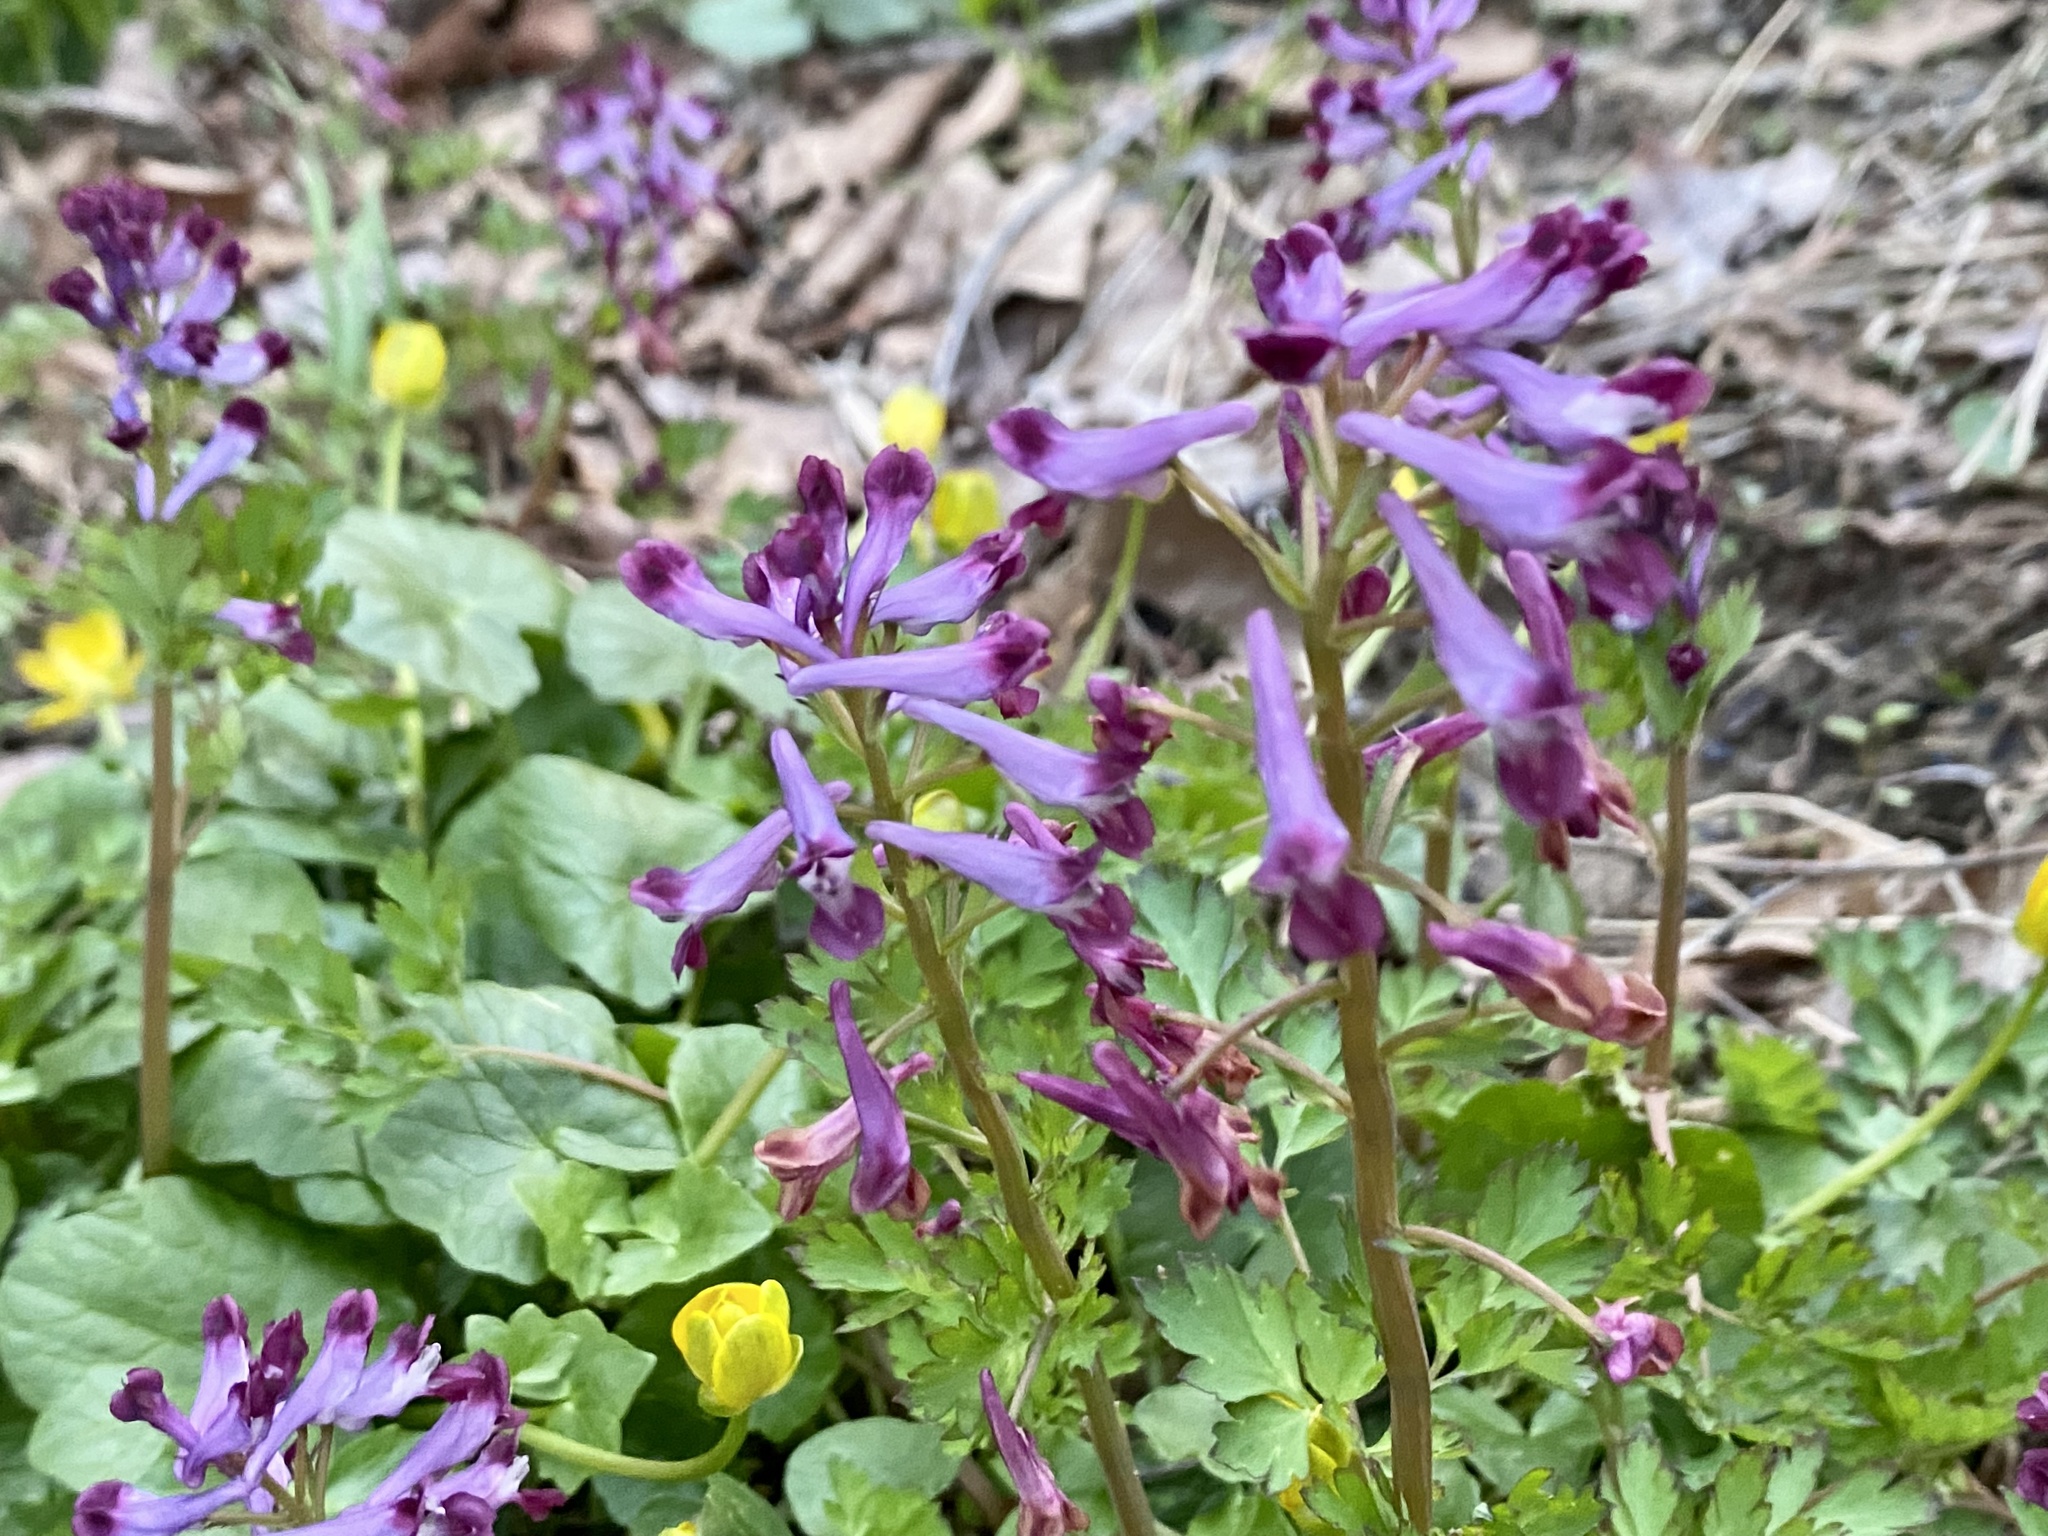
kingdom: Plantae
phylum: Tracheophyta
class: Magnoliopsida
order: Ranunculales
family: Papaveraceae
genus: Corydalis
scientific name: Corydalis incisa
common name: Incised fumewort
